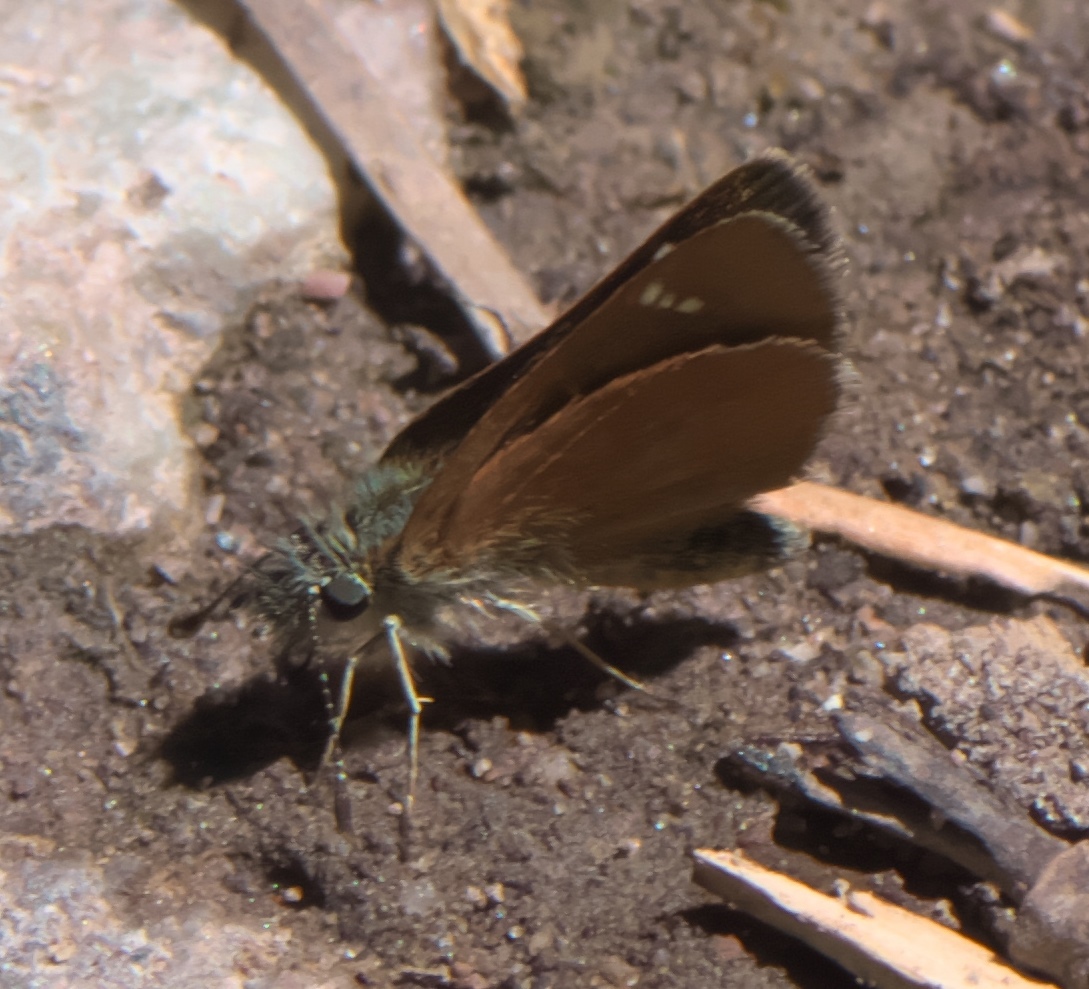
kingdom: Animalia
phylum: Arthropoda
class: Insecta
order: Lepidoptera
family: Hesperiidae
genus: Piruna
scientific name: Piruna pirus
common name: Russet skipperling
